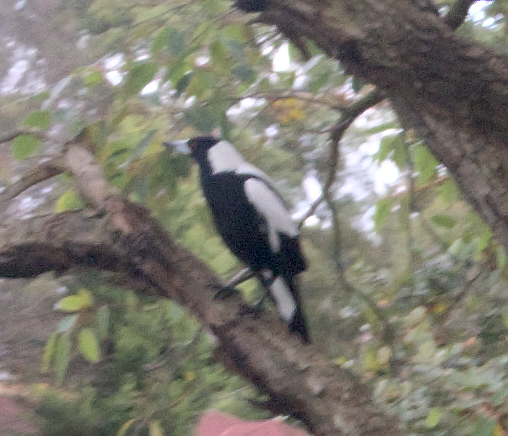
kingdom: Animalia
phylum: Chordata
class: Aves
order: Passeriformes
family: Cracticidae
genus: Gymnorhina
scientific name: Gymnorhina tibicen
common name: Australian magpie
